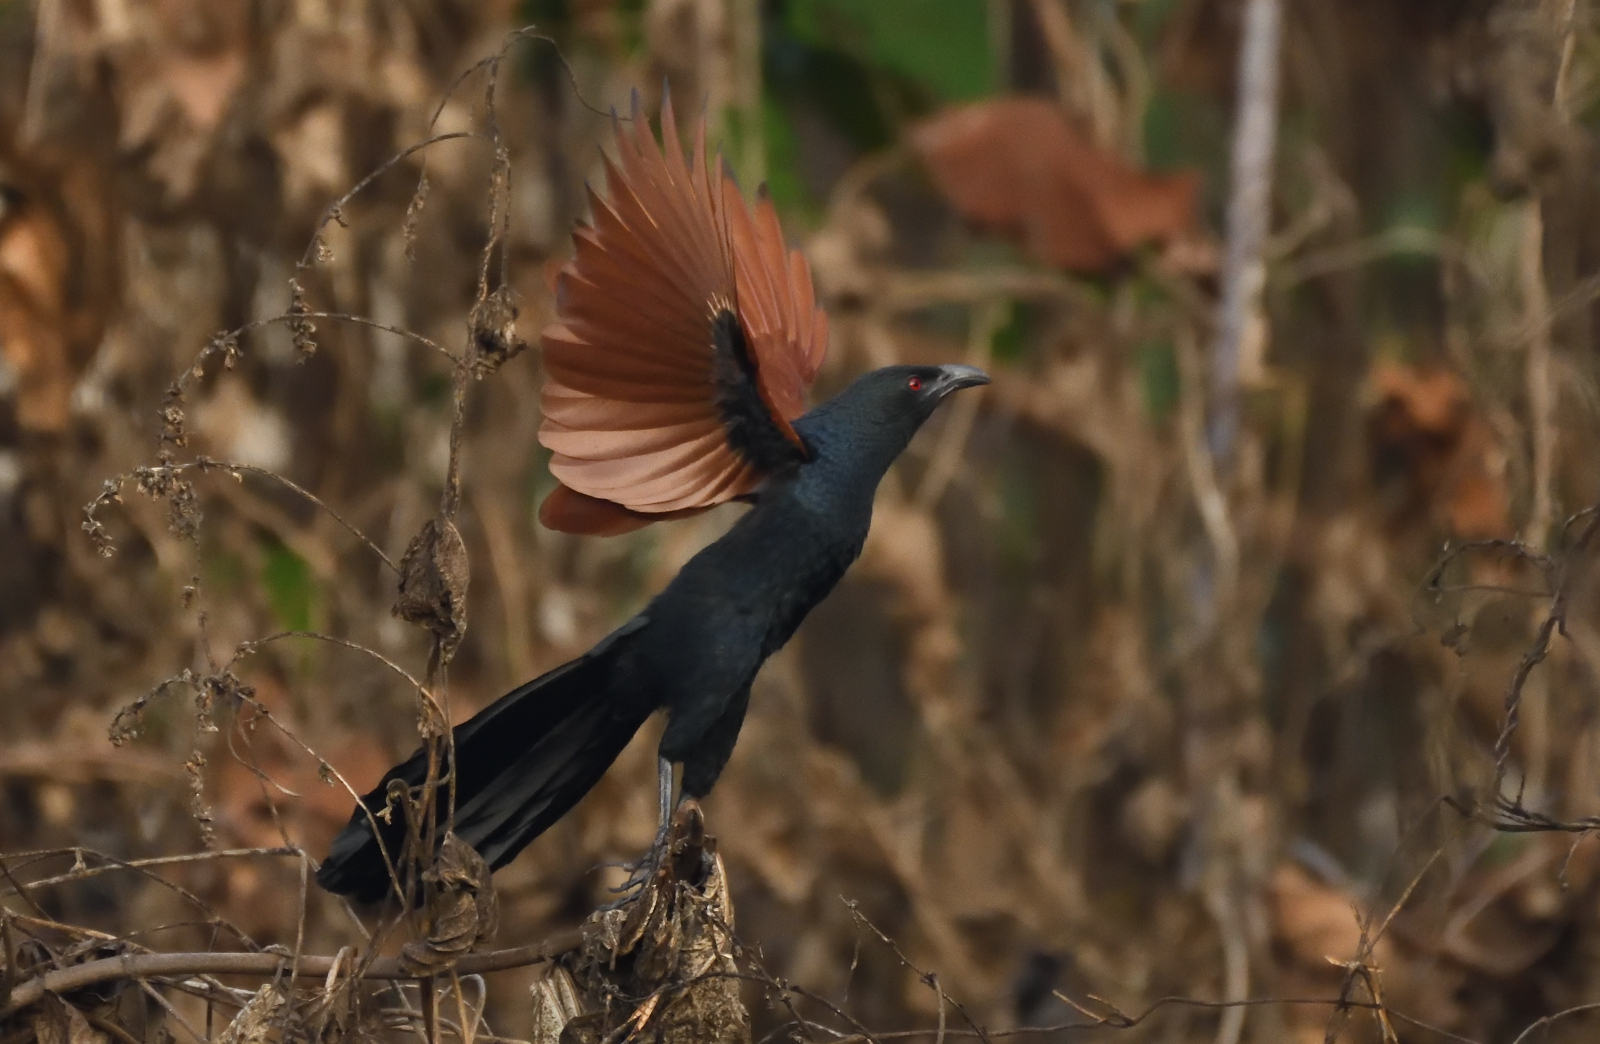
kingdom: Animalia
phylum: Chordata
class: Aves
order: Cuculiformes
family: Cuculidae
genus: Centropus
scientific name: Centropus sinensis
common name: Greater coucal
